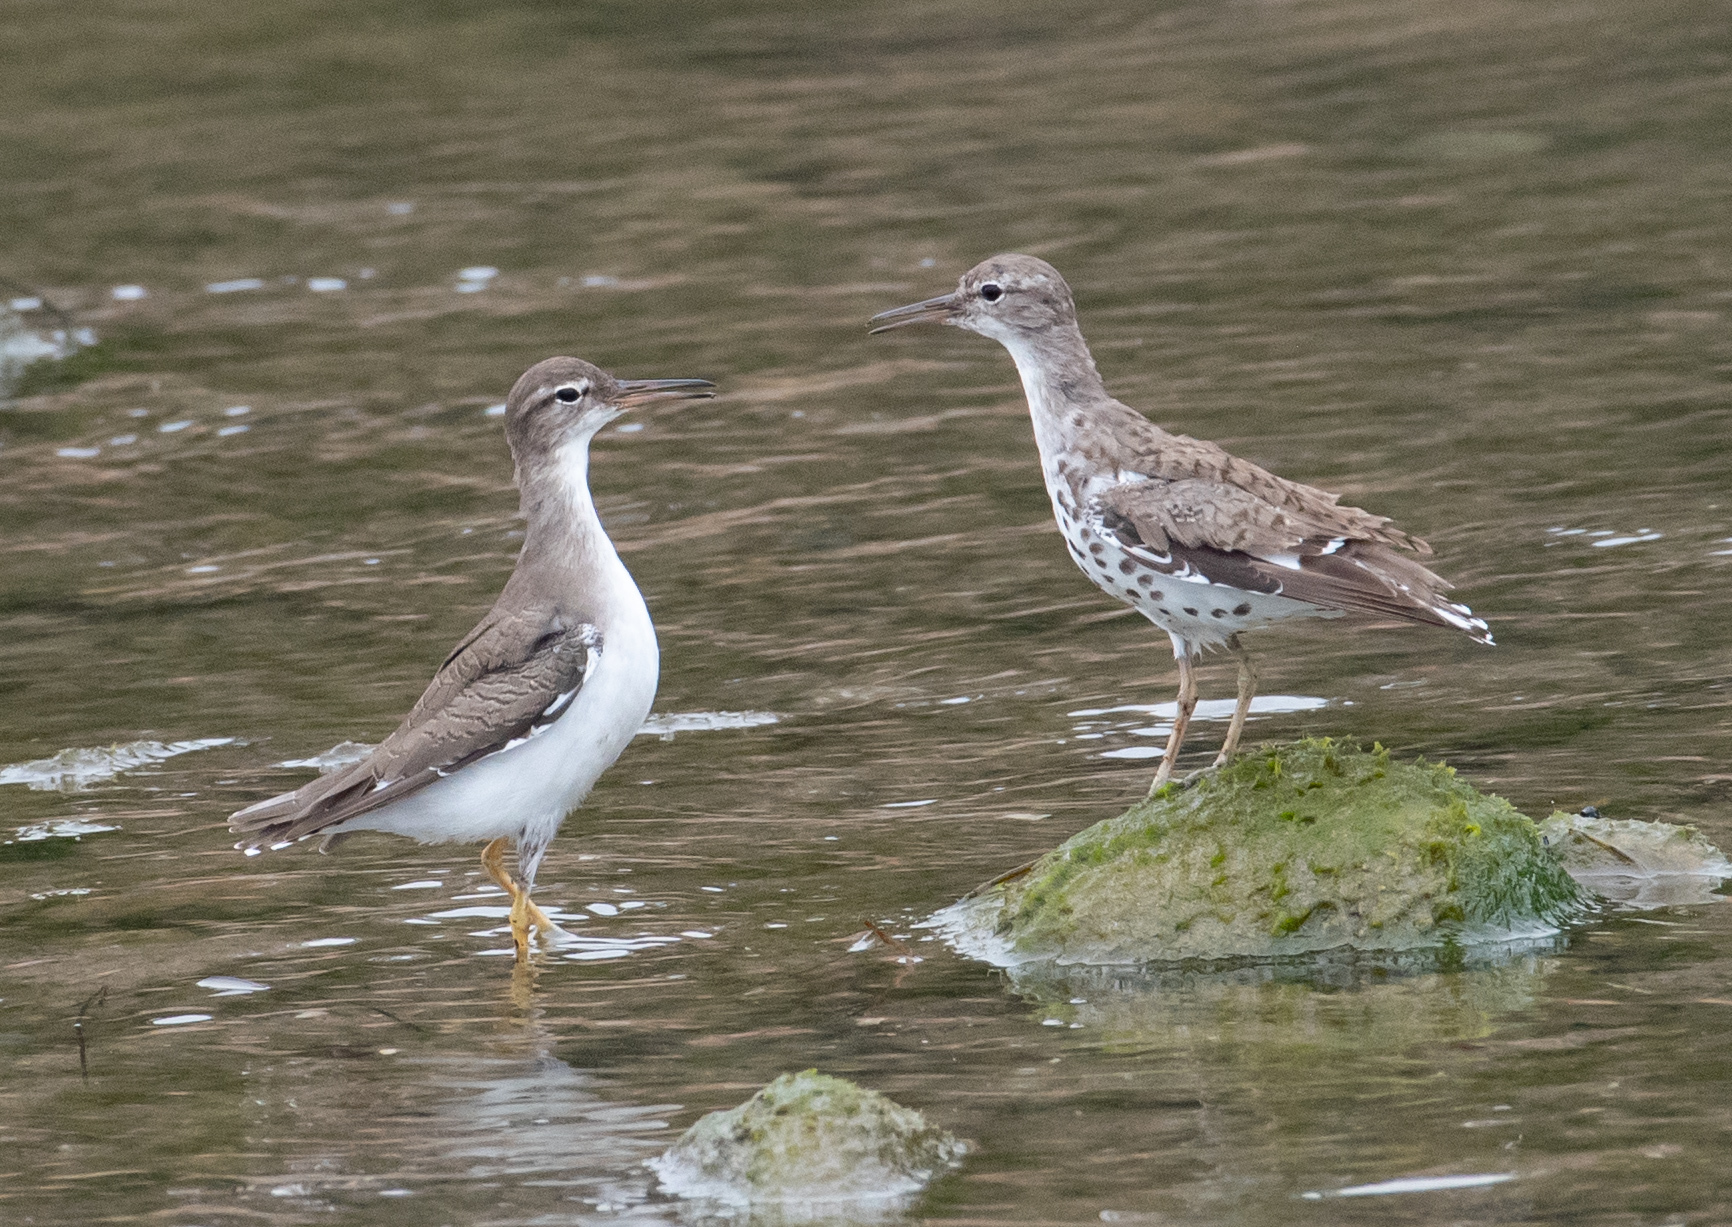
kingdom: Animalia
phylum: Chordata
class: Aves
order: Charadriiformes
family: Scolopacidae
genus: Actitis
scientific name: Actitis macularius
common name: Spotted sandpiper
